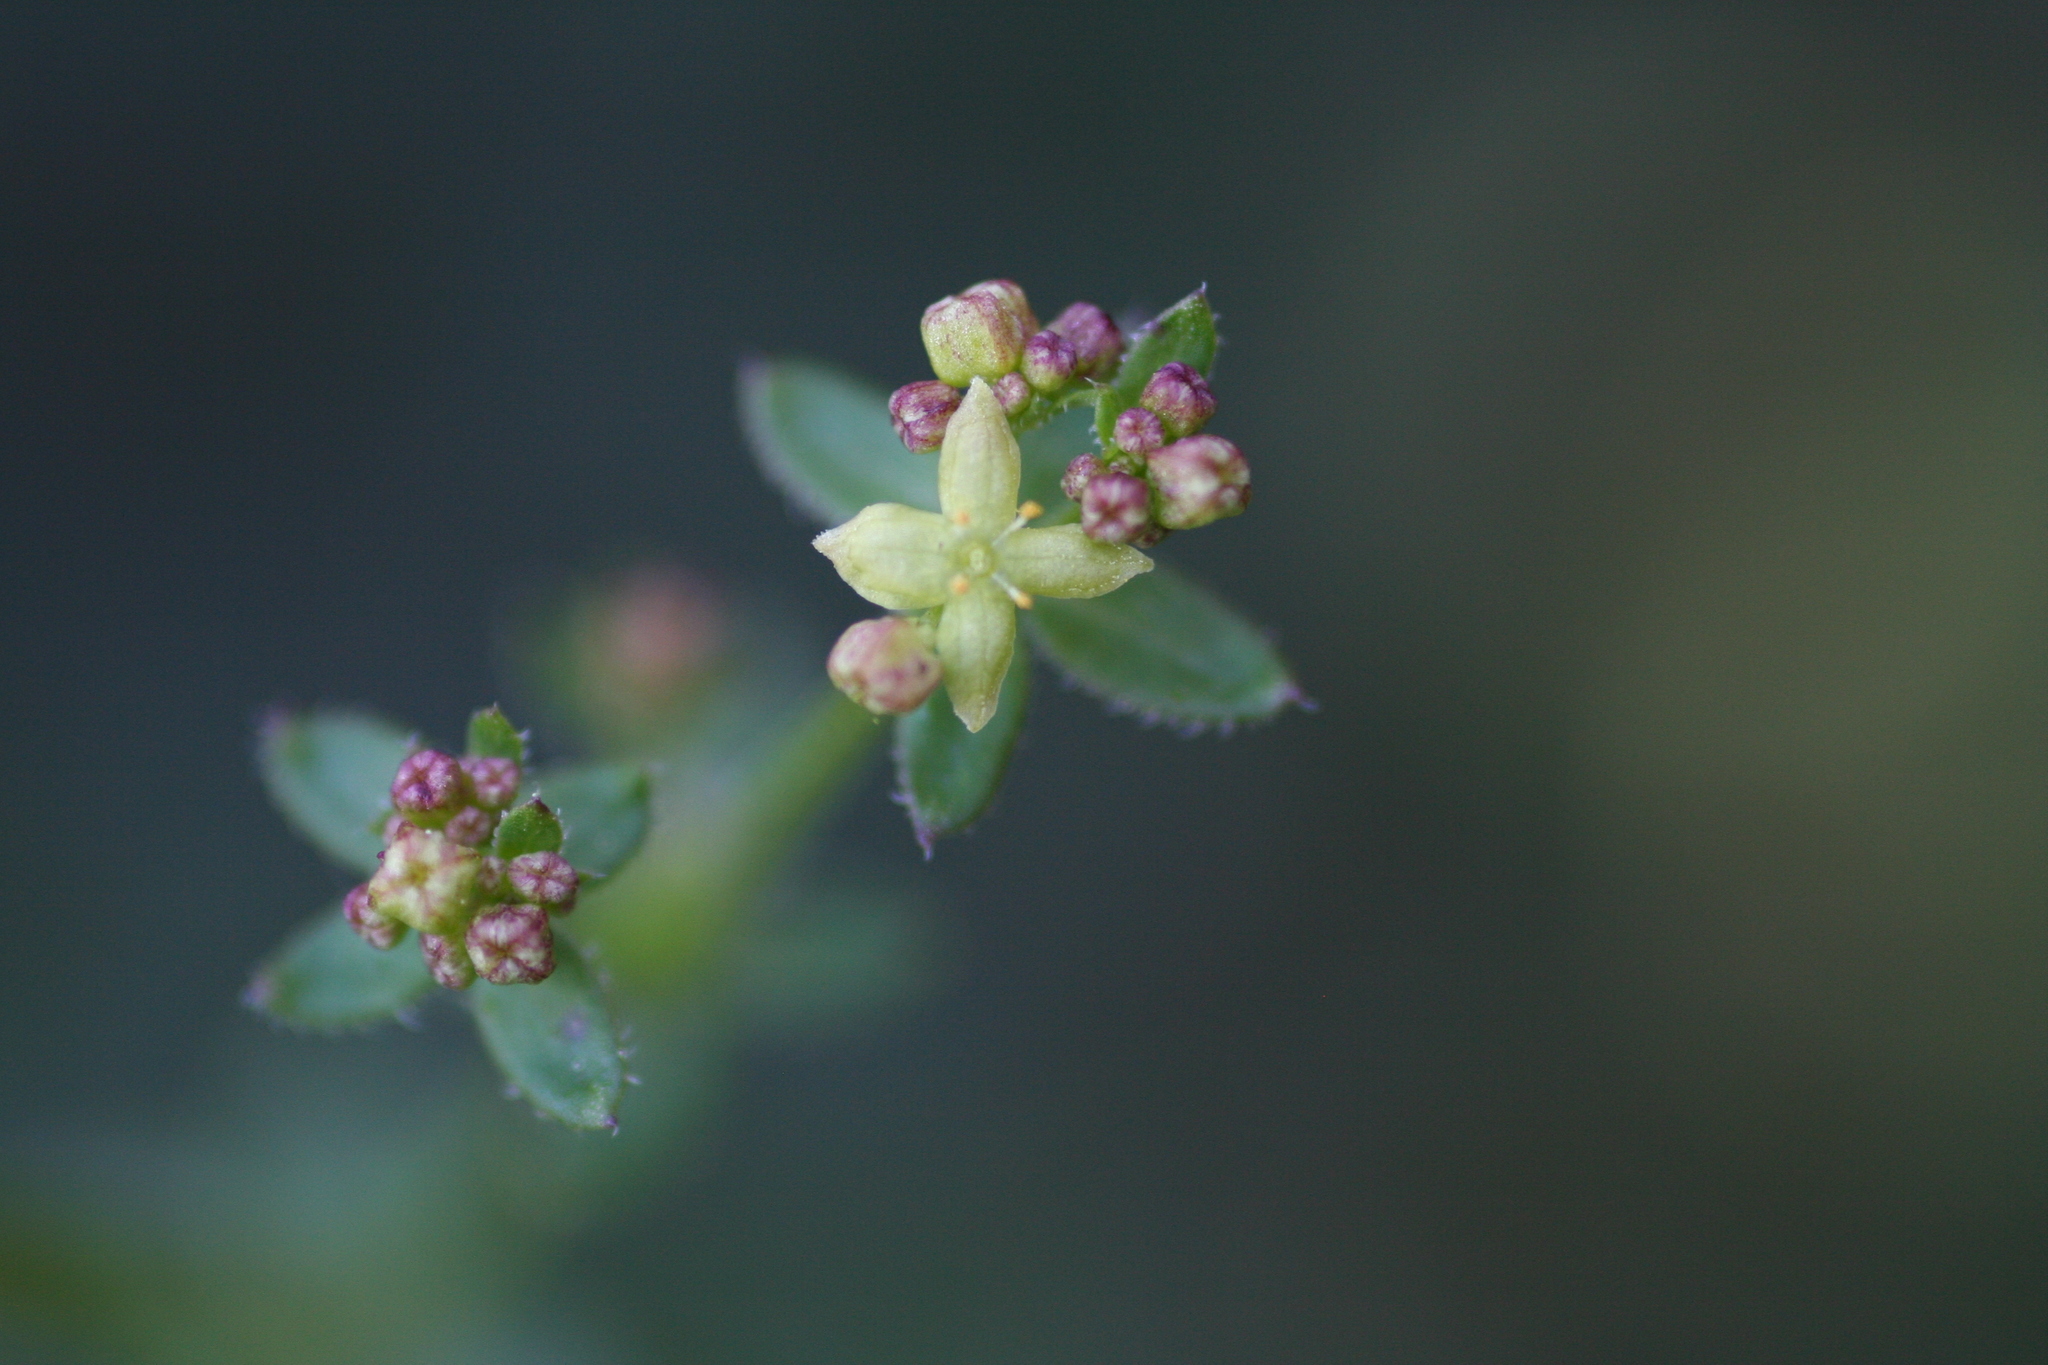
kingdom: Plantae
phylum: Tracheophyta
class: Magnoliopsida
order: Gentianales
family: Rubiaceae
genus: Galium
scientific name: Galium porrigens
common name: Climbing bedstraw
